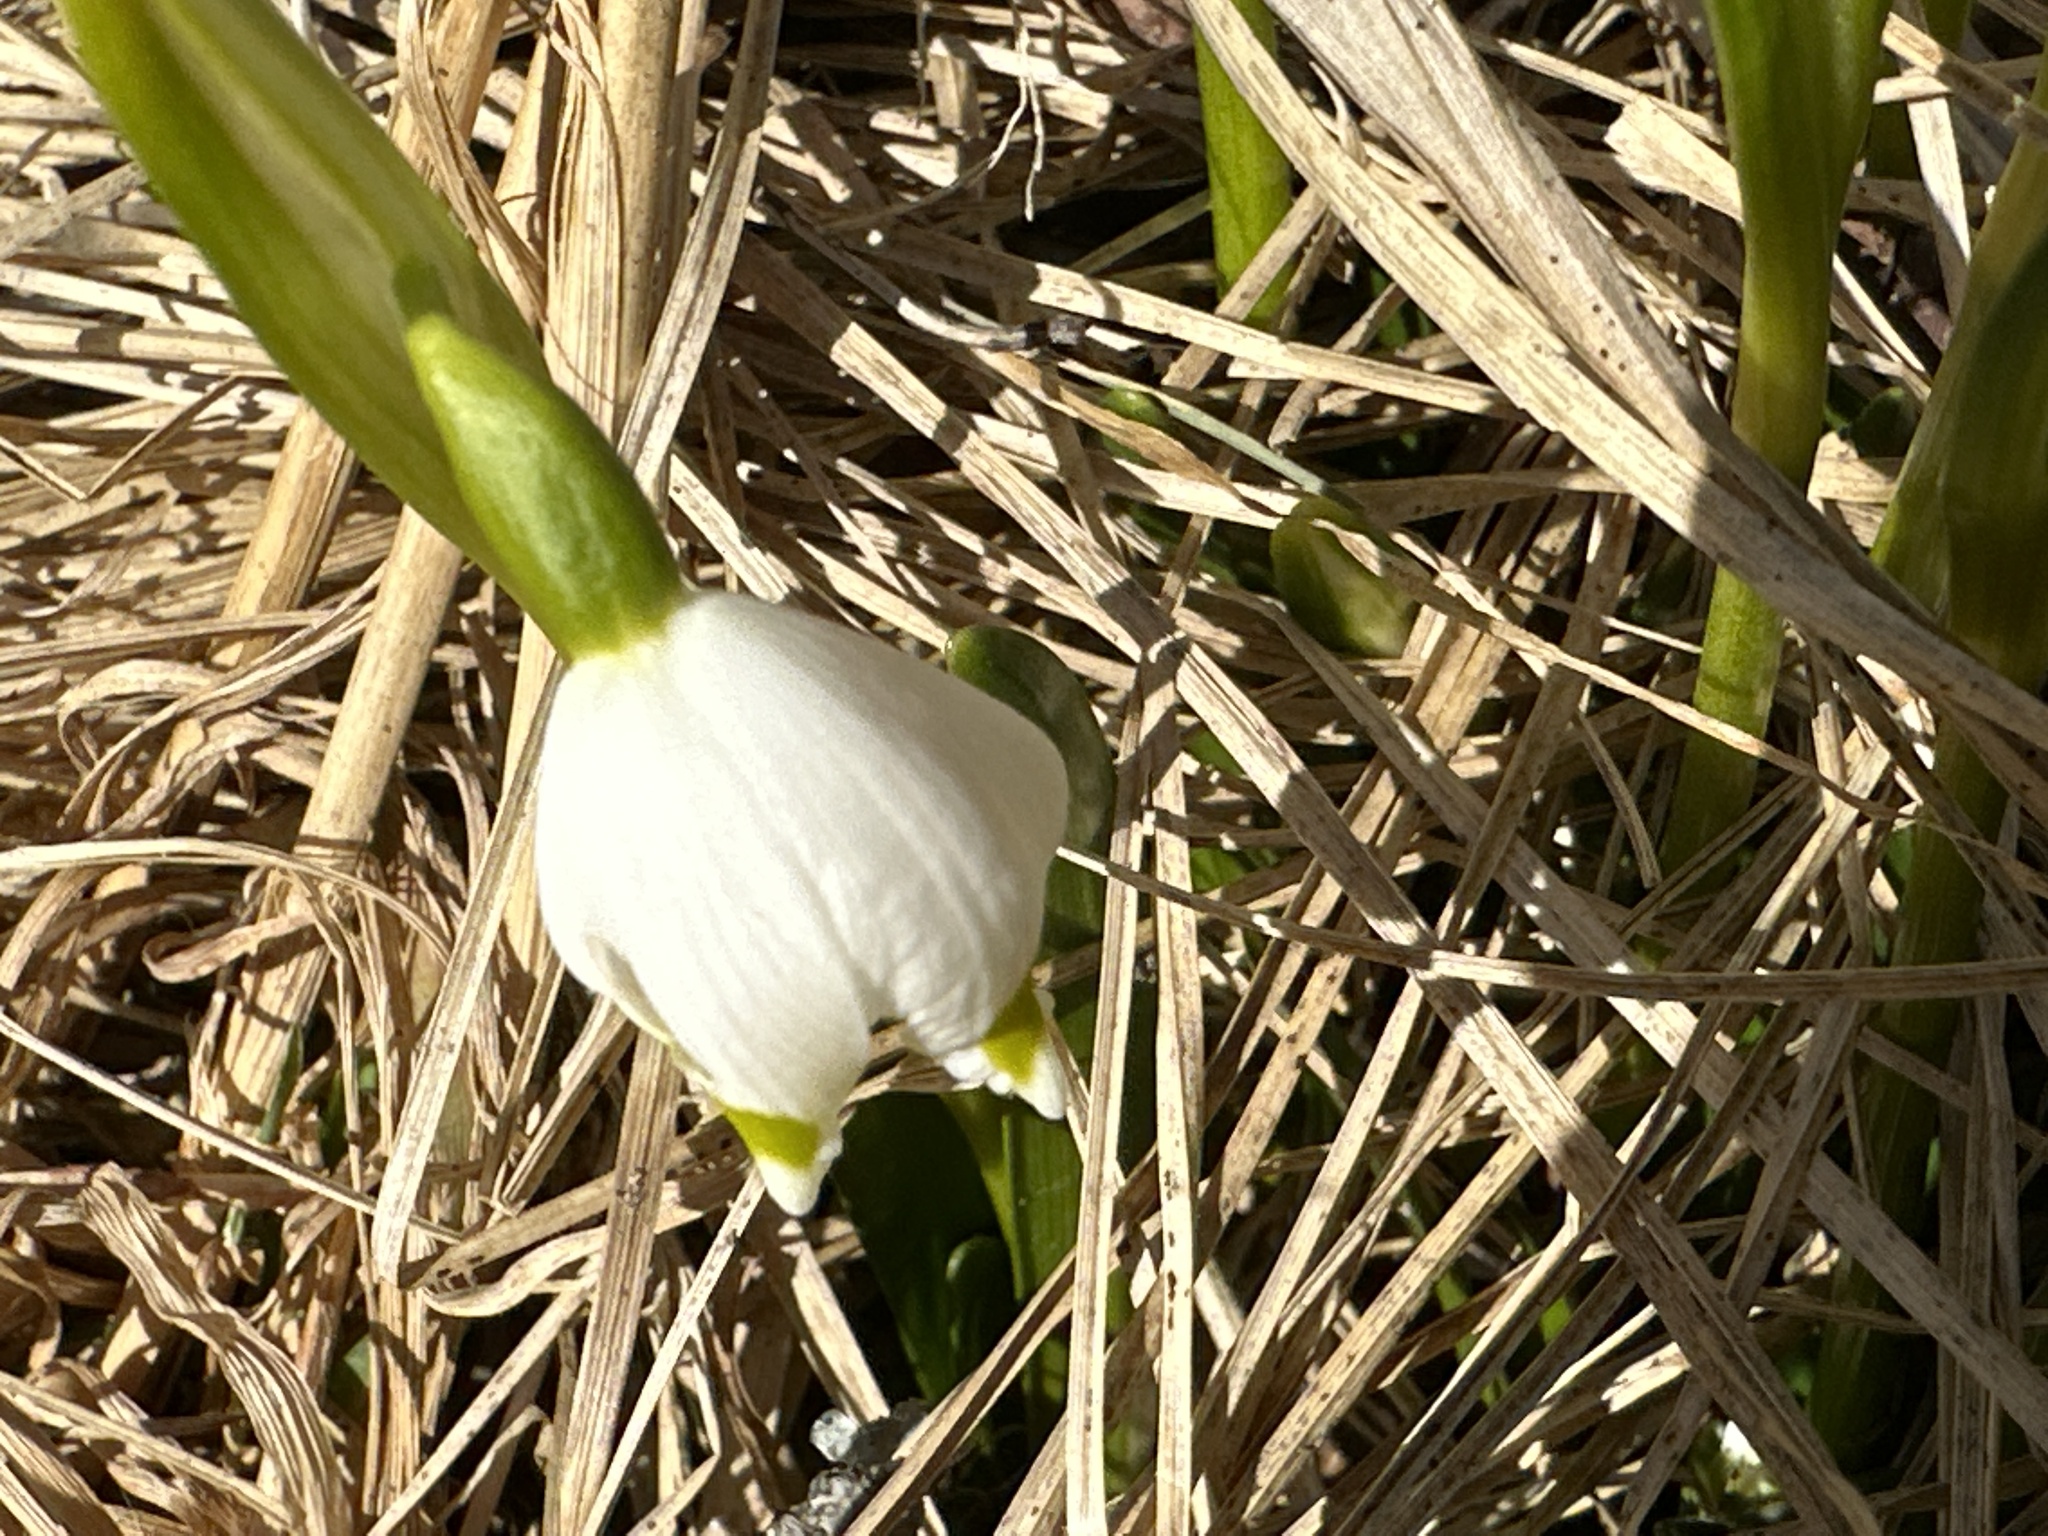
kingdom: Plantae
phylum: Tracheophyta
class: Liliopsida
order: Asparagales
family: Amaryllidaceae
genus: Leucojum
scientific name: Leucojum vernum
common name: Spring snowflake
